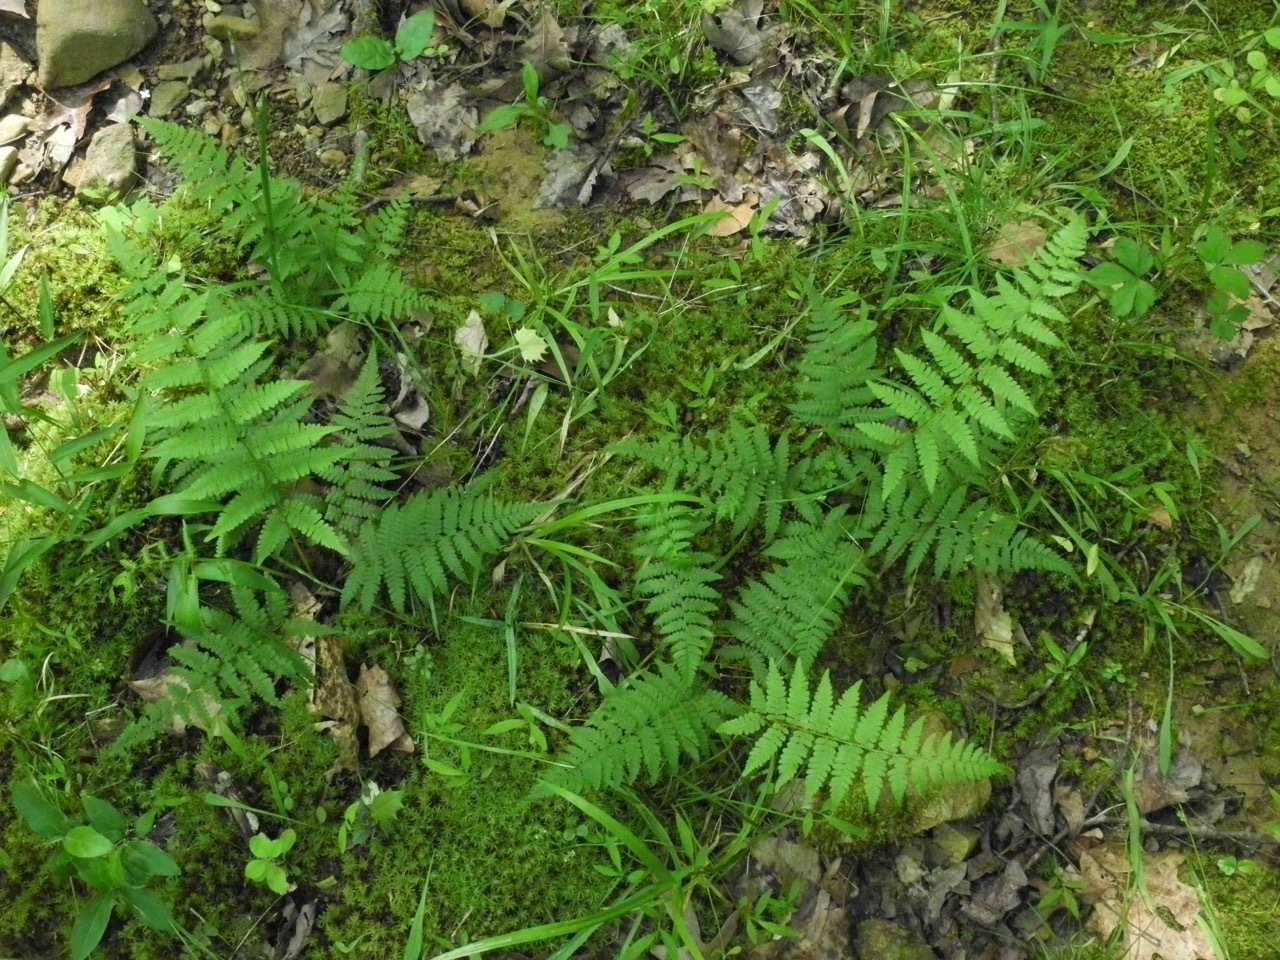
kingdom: Plantae
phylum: Tracheophyta
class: Polypodiopsida
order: Polypodiales
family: Athyriaceae
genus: Athyrium
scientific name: Athyrium asplenioides
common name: Southern lady fern
